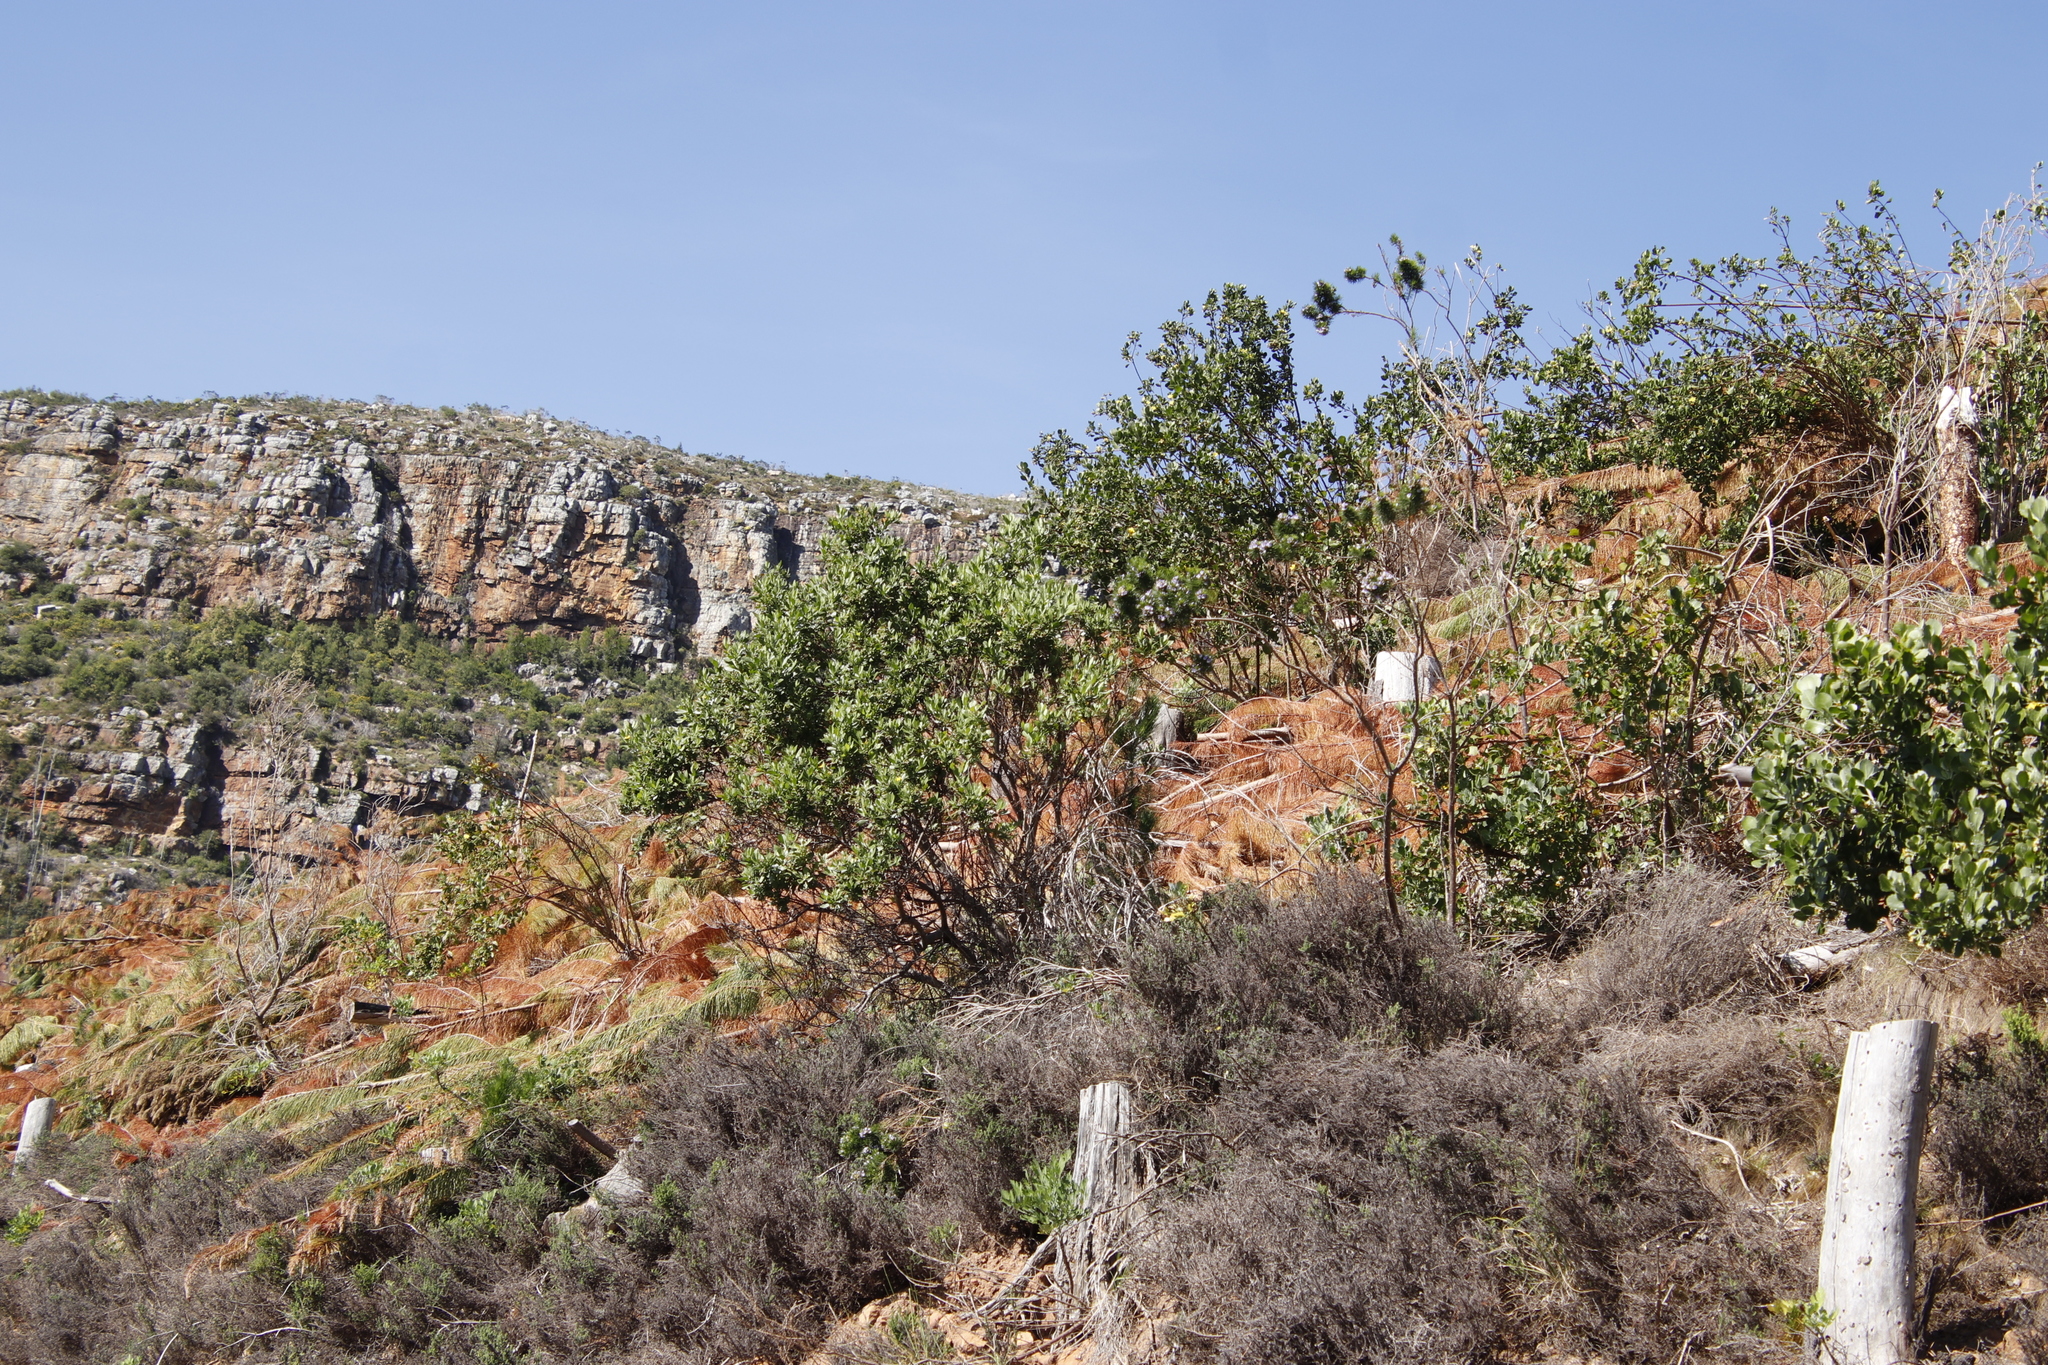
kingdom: Plantae
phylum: Tracheophyta
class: Magnoliopsida
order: Malpighiales
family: Achariaceae
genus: Kiggelaria
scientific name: Kiggelaria africana
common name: Wild peach
